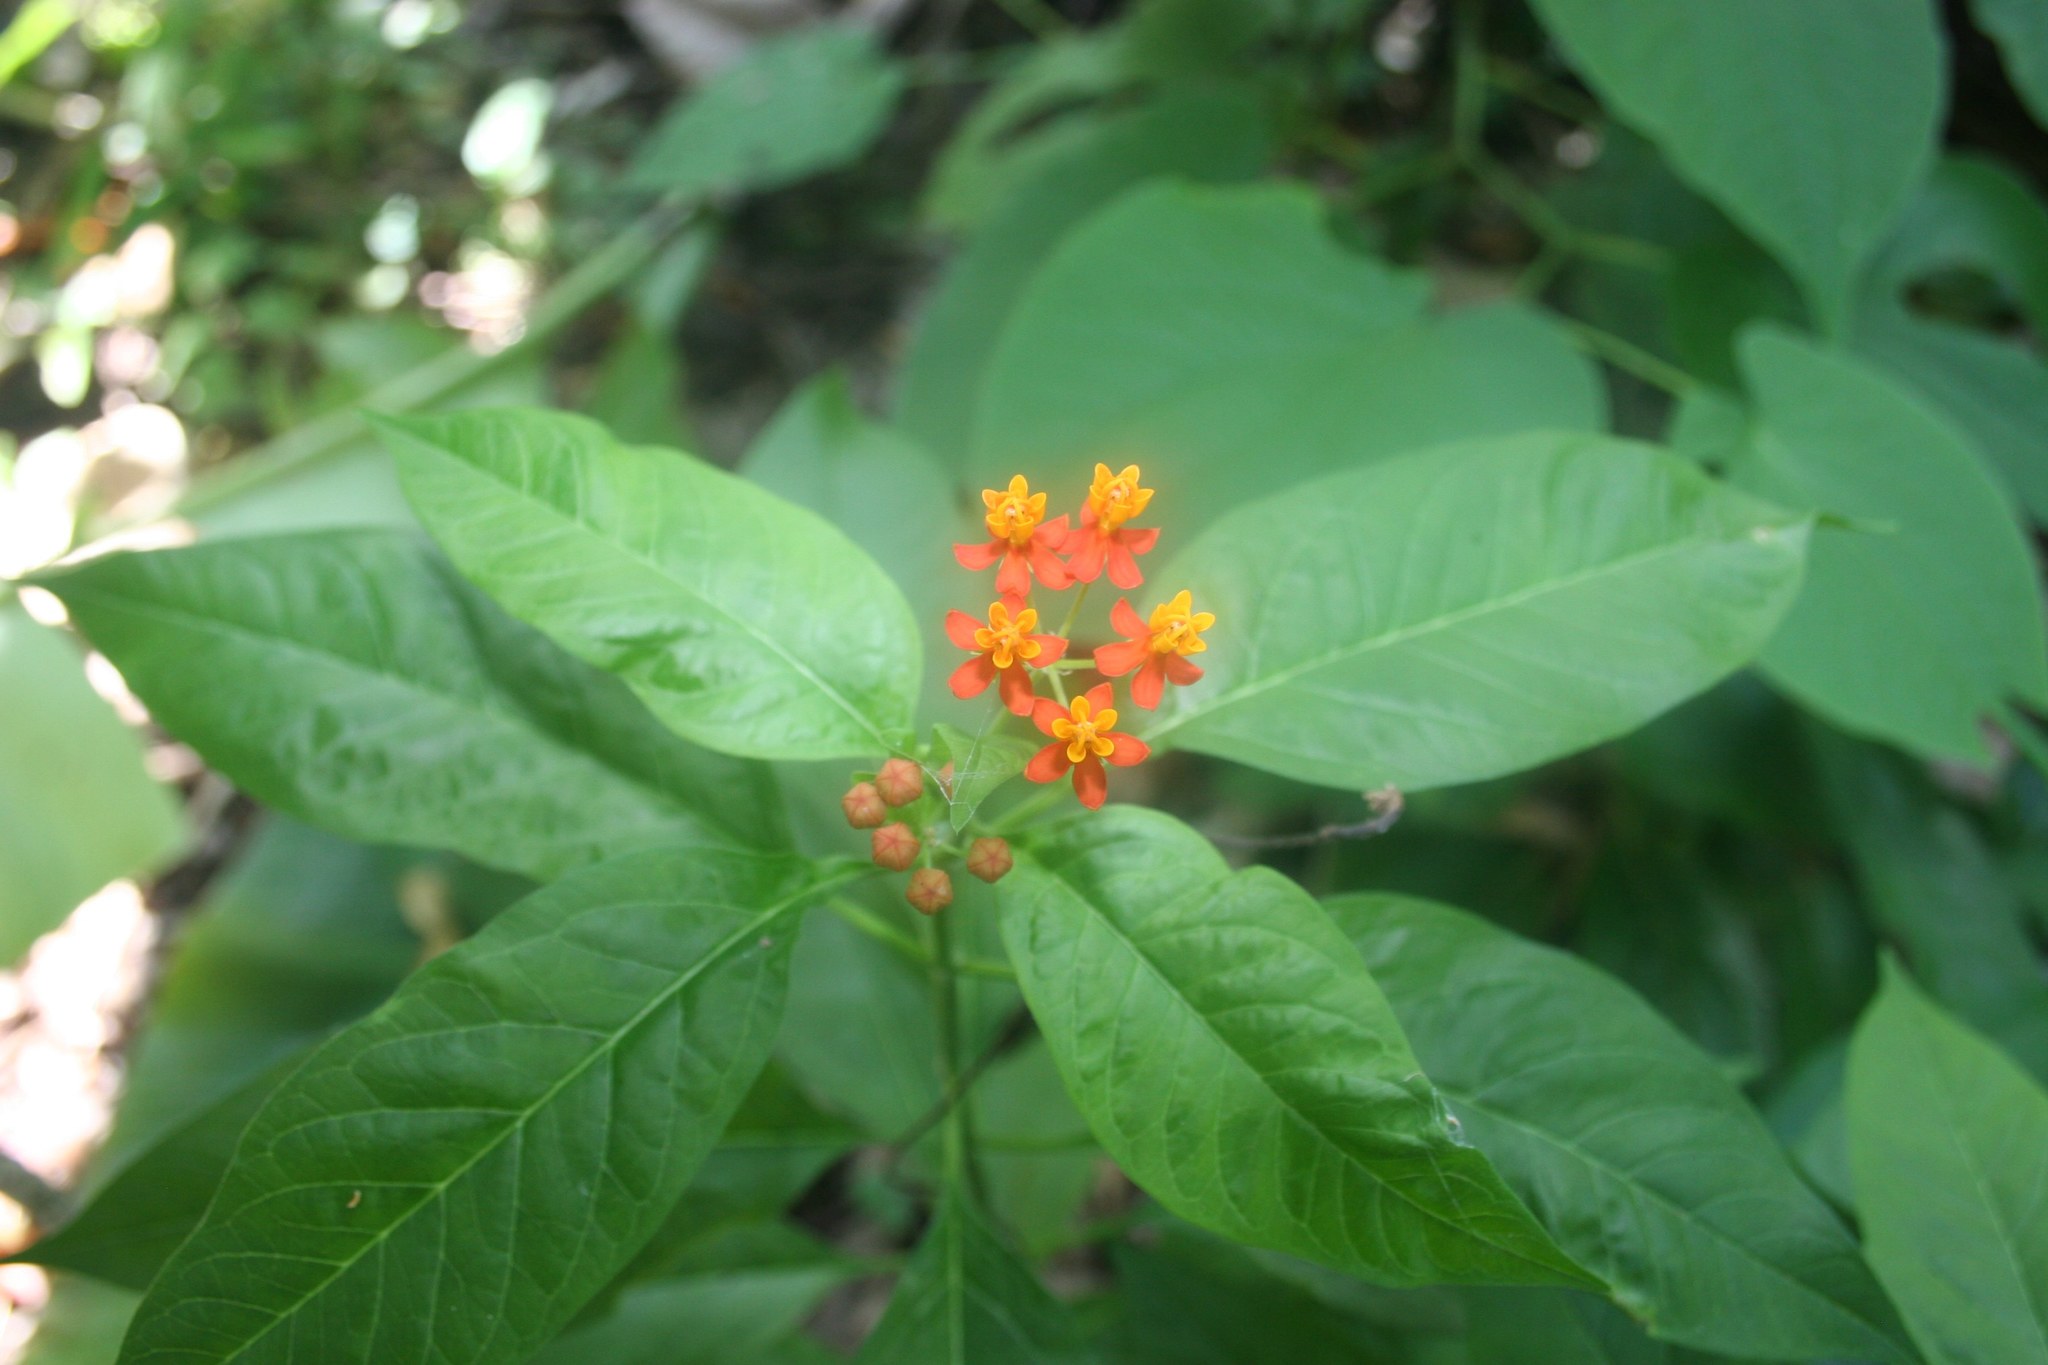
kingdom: Plantae
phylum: Tracheophyta
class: Magnoliopsida
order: Gentianales
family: Apocynaceae
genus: Asclepias
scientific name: Asclepias curassavica
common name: Bloodflower
